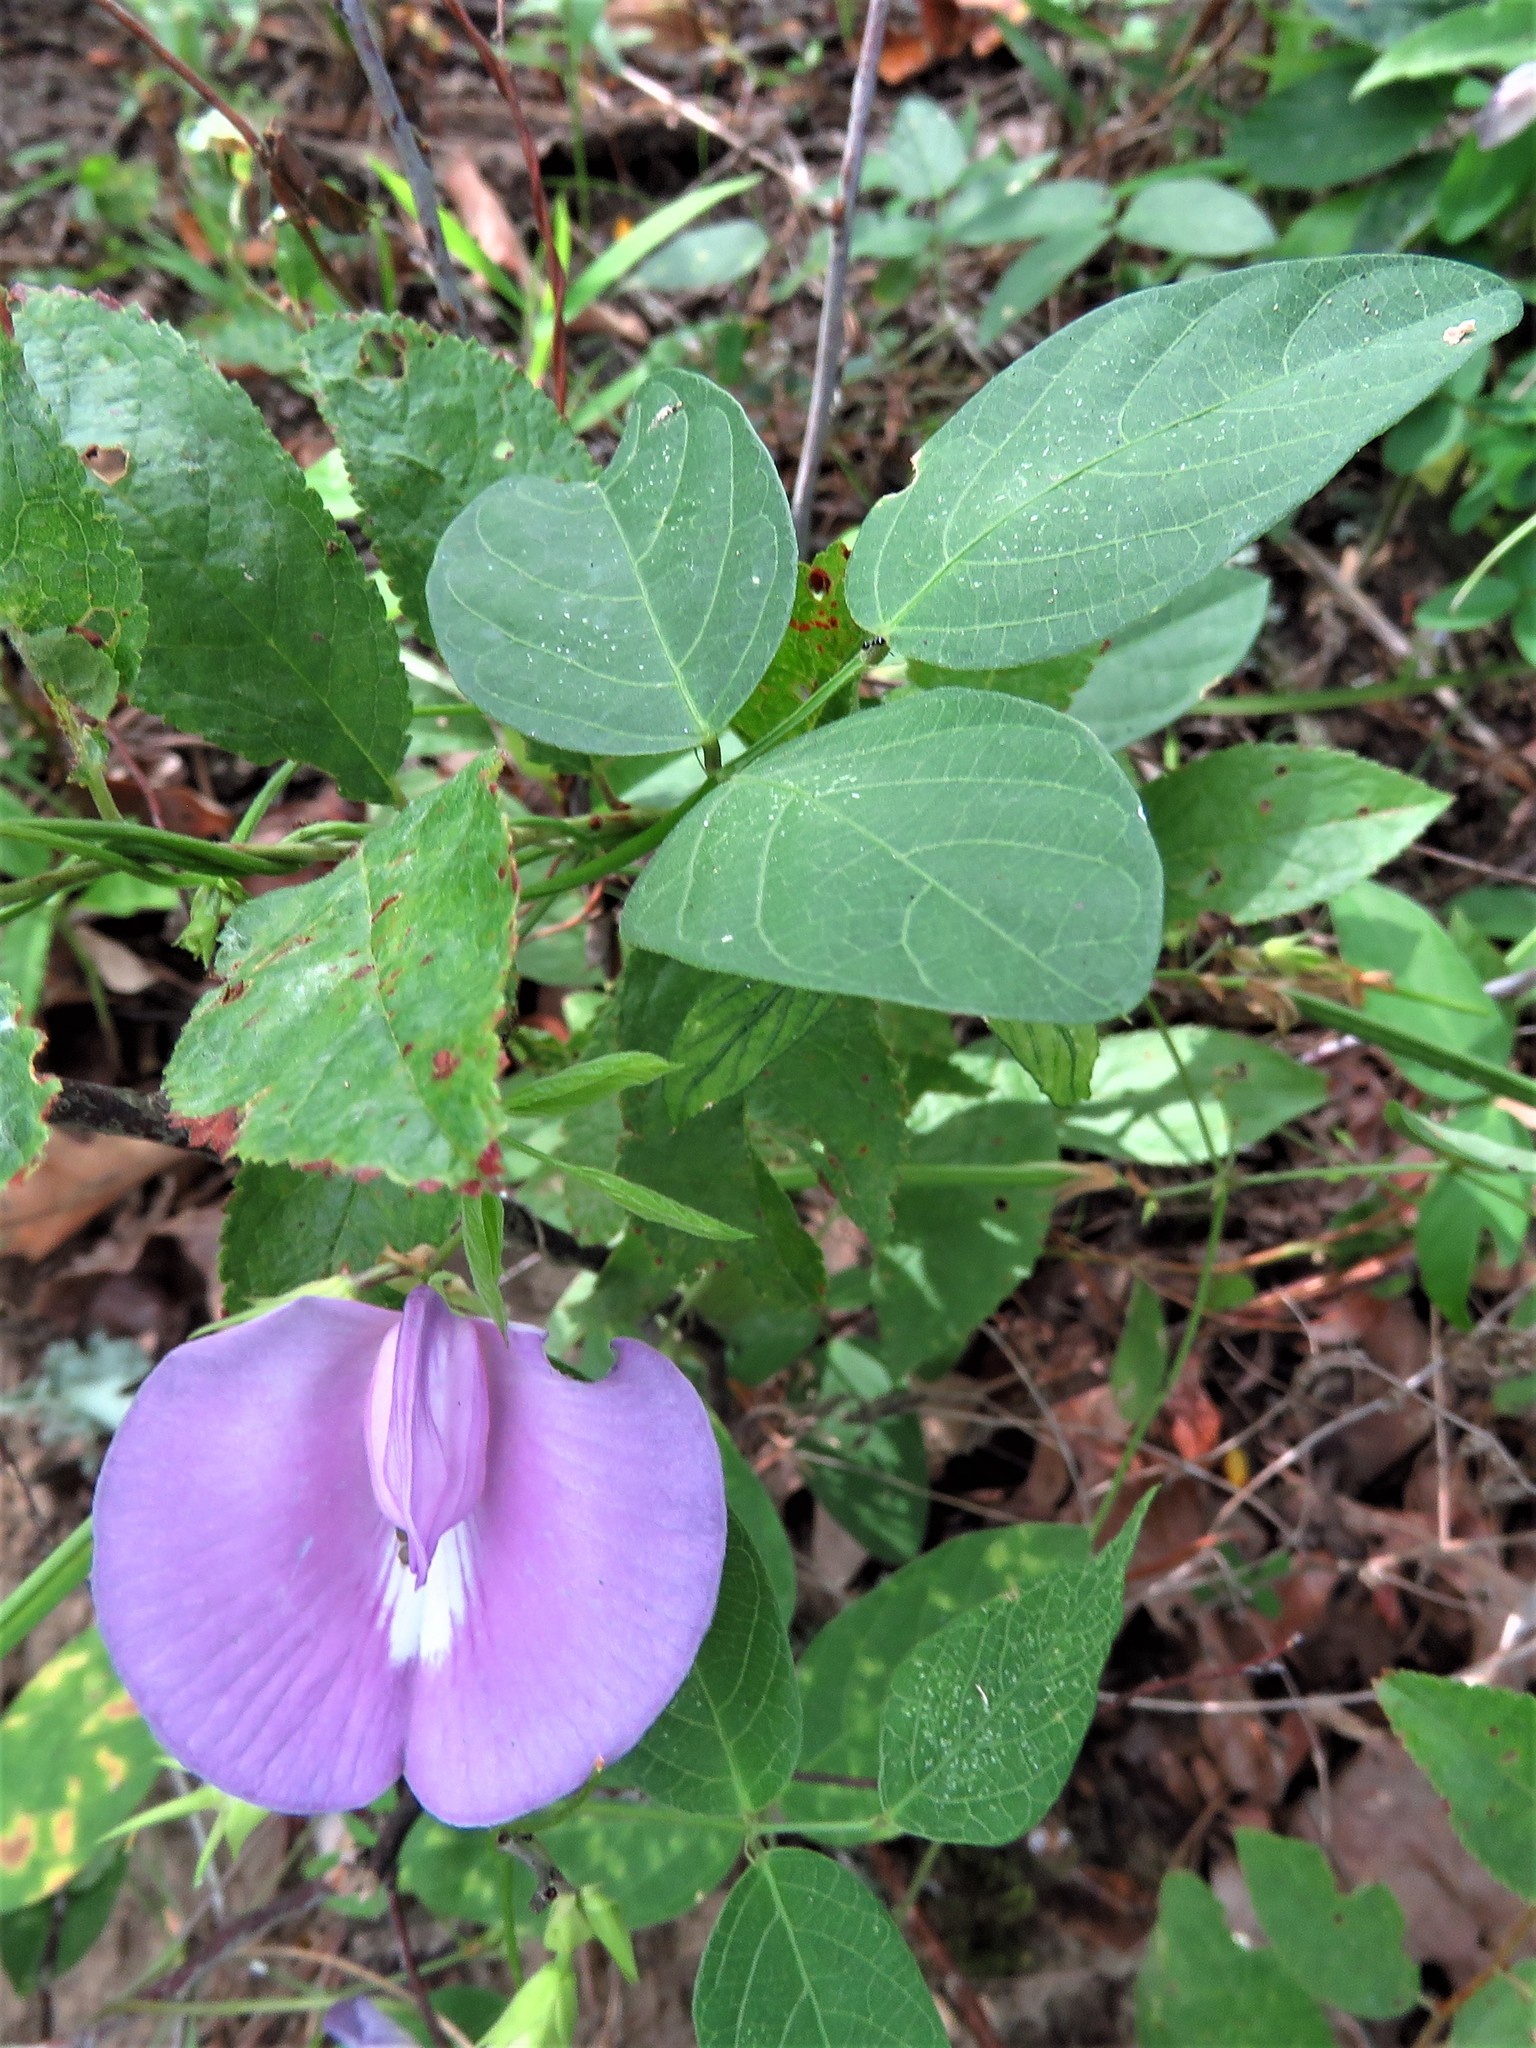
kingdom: Plantae
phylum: Tracheophyta
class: Magnoliopsida
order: Fabales
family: Fabaceae
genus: Centrosema
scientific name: Centrosema virginianum
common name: Butterfly-pea
